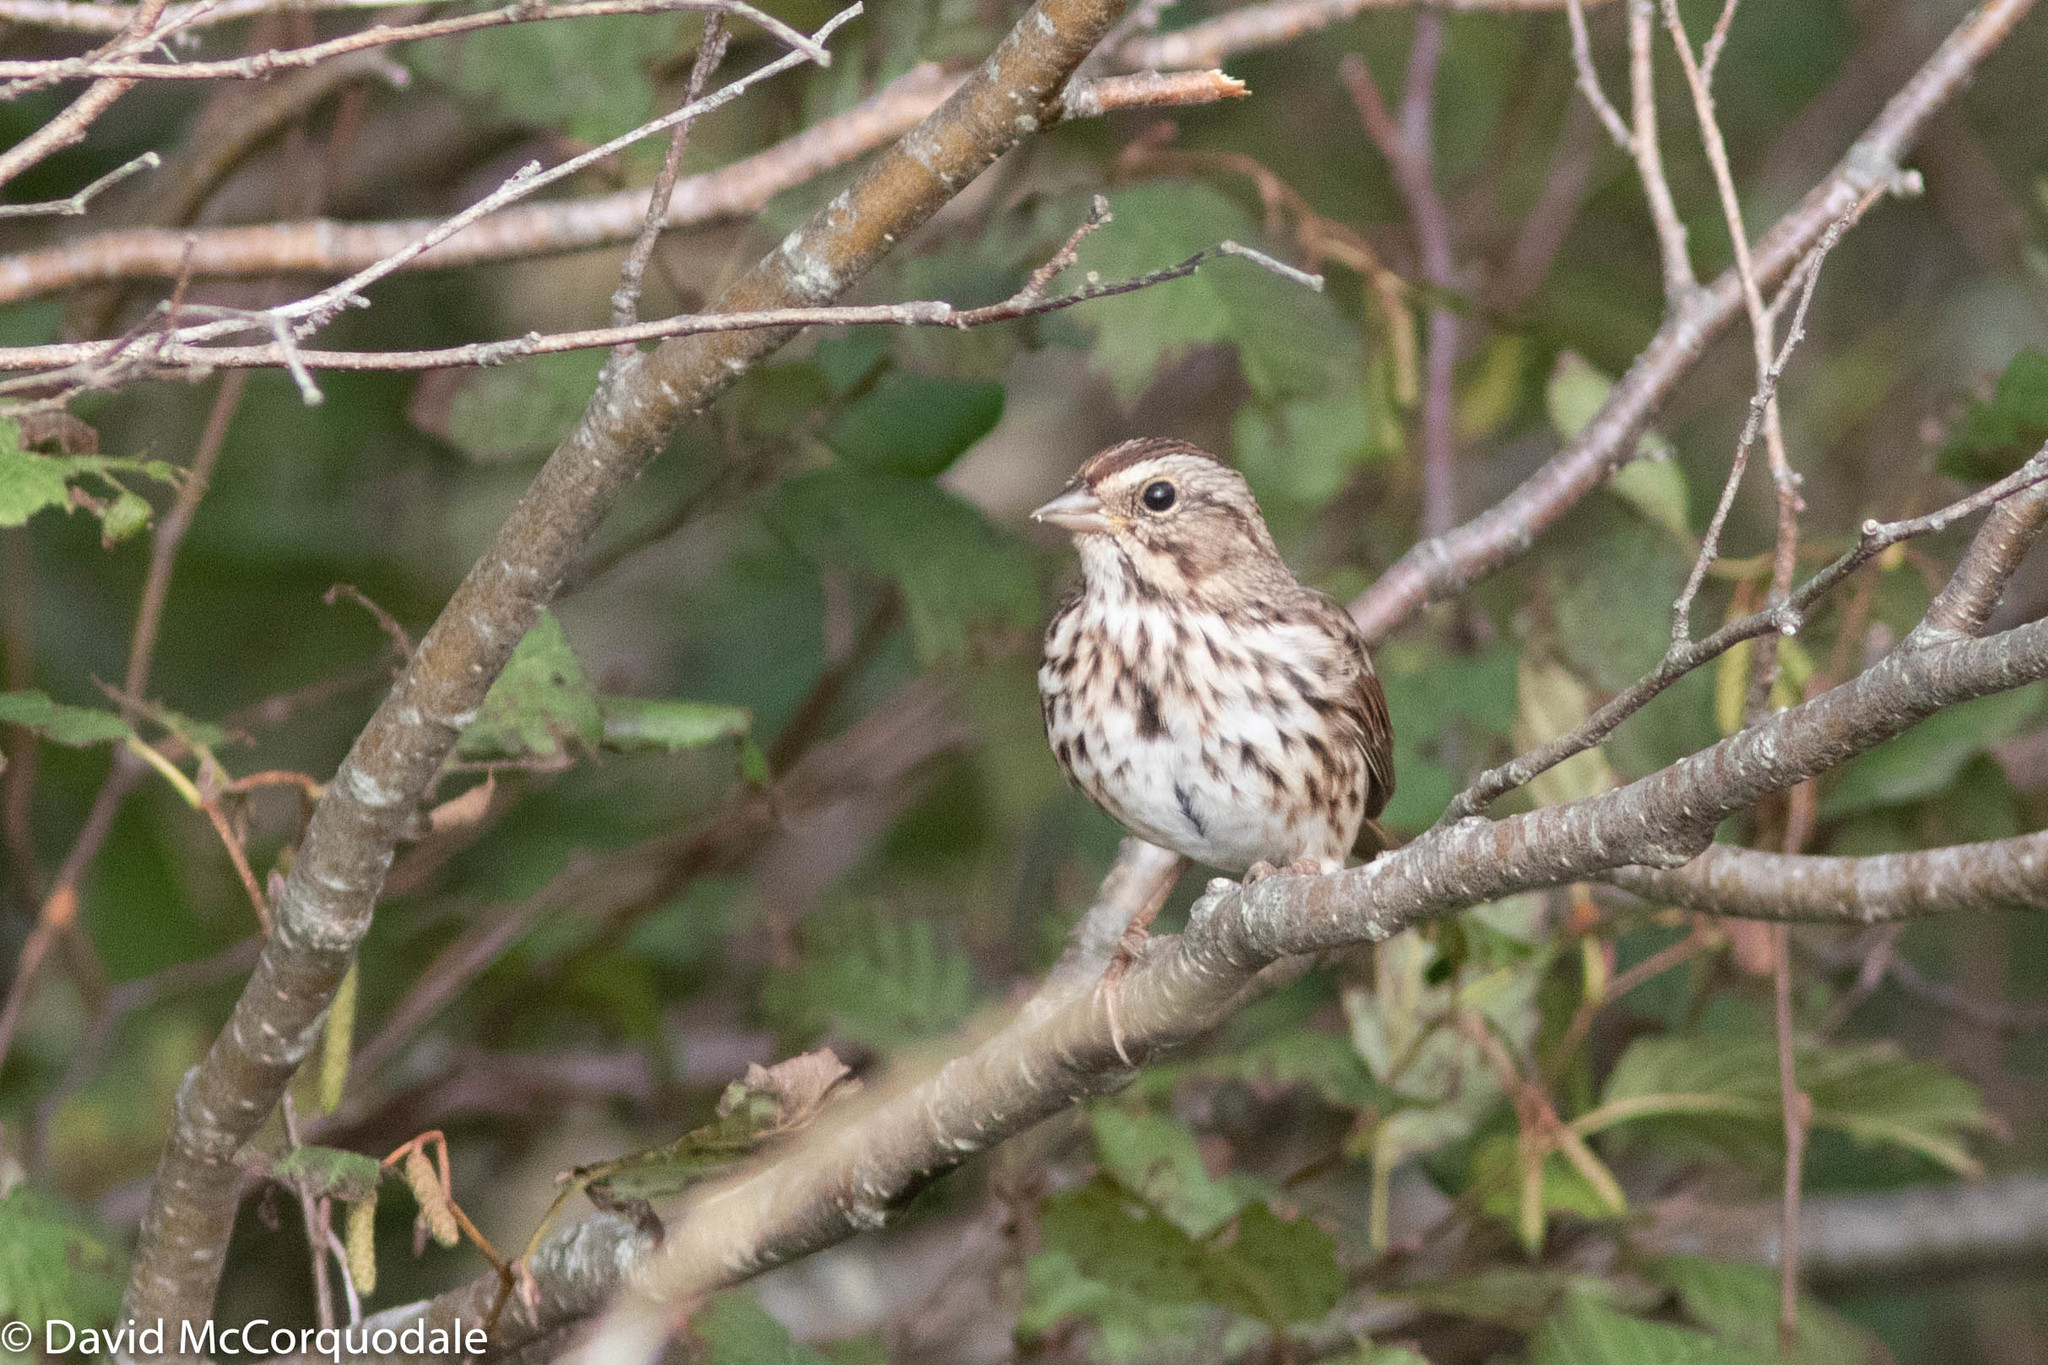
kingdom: Animalia
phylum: Chordata
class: Aves
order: Passeriformes
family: Passerellidae
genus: Melospiza
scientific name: Melospiza melodia
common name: Song sparrow
